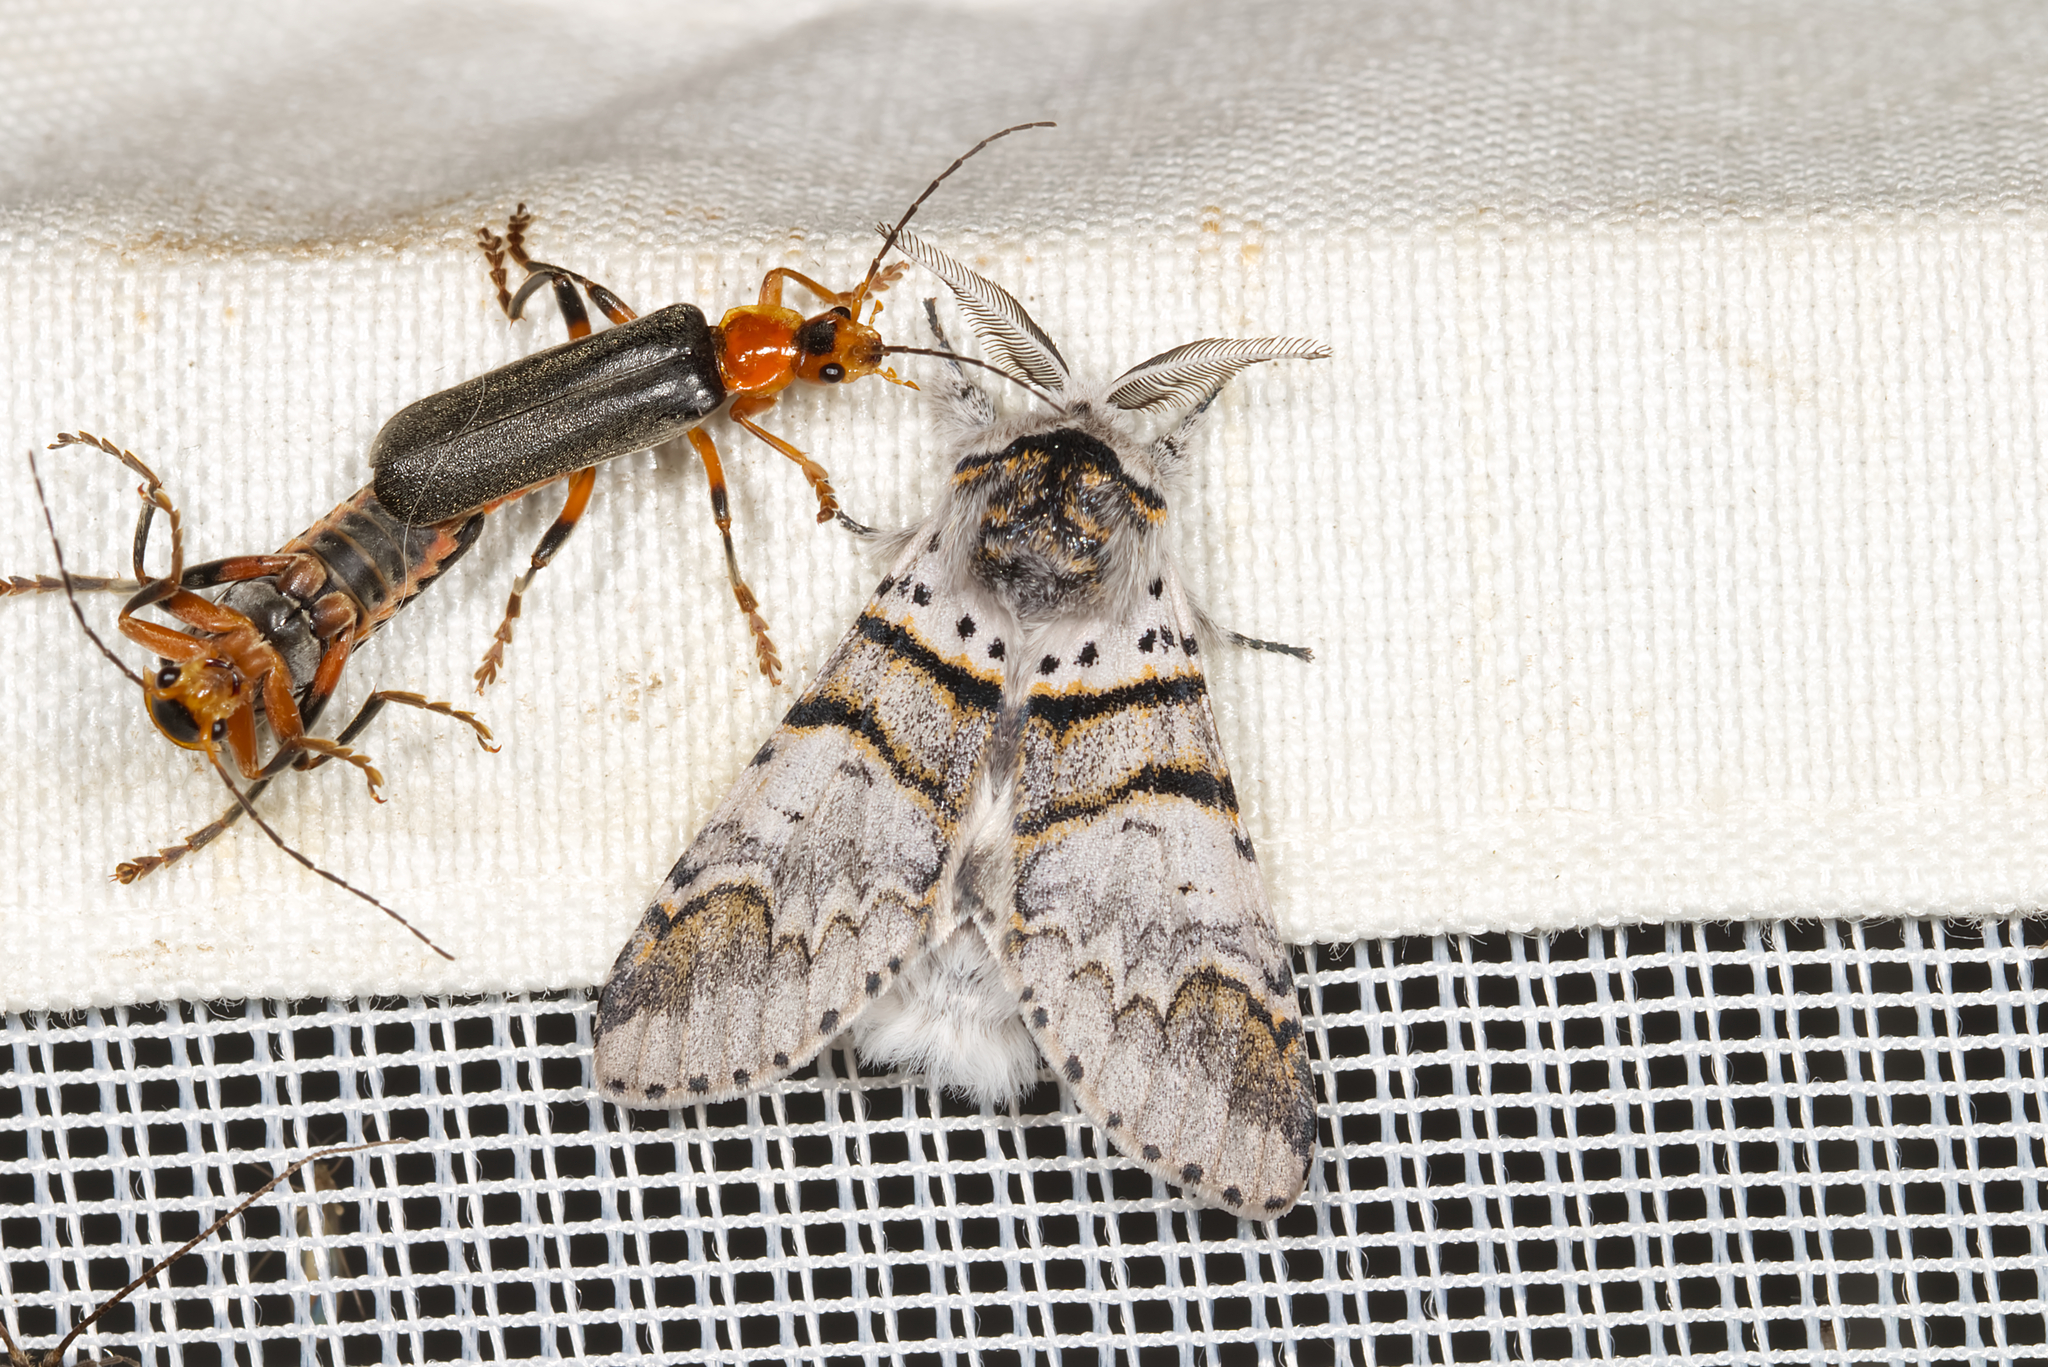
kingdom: Animalia
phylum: Arthropoda
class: Insecta
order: Lepidoptera
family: Notodontidae
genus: Furcula
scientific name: Furcula bifida
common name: Poplar kitten
